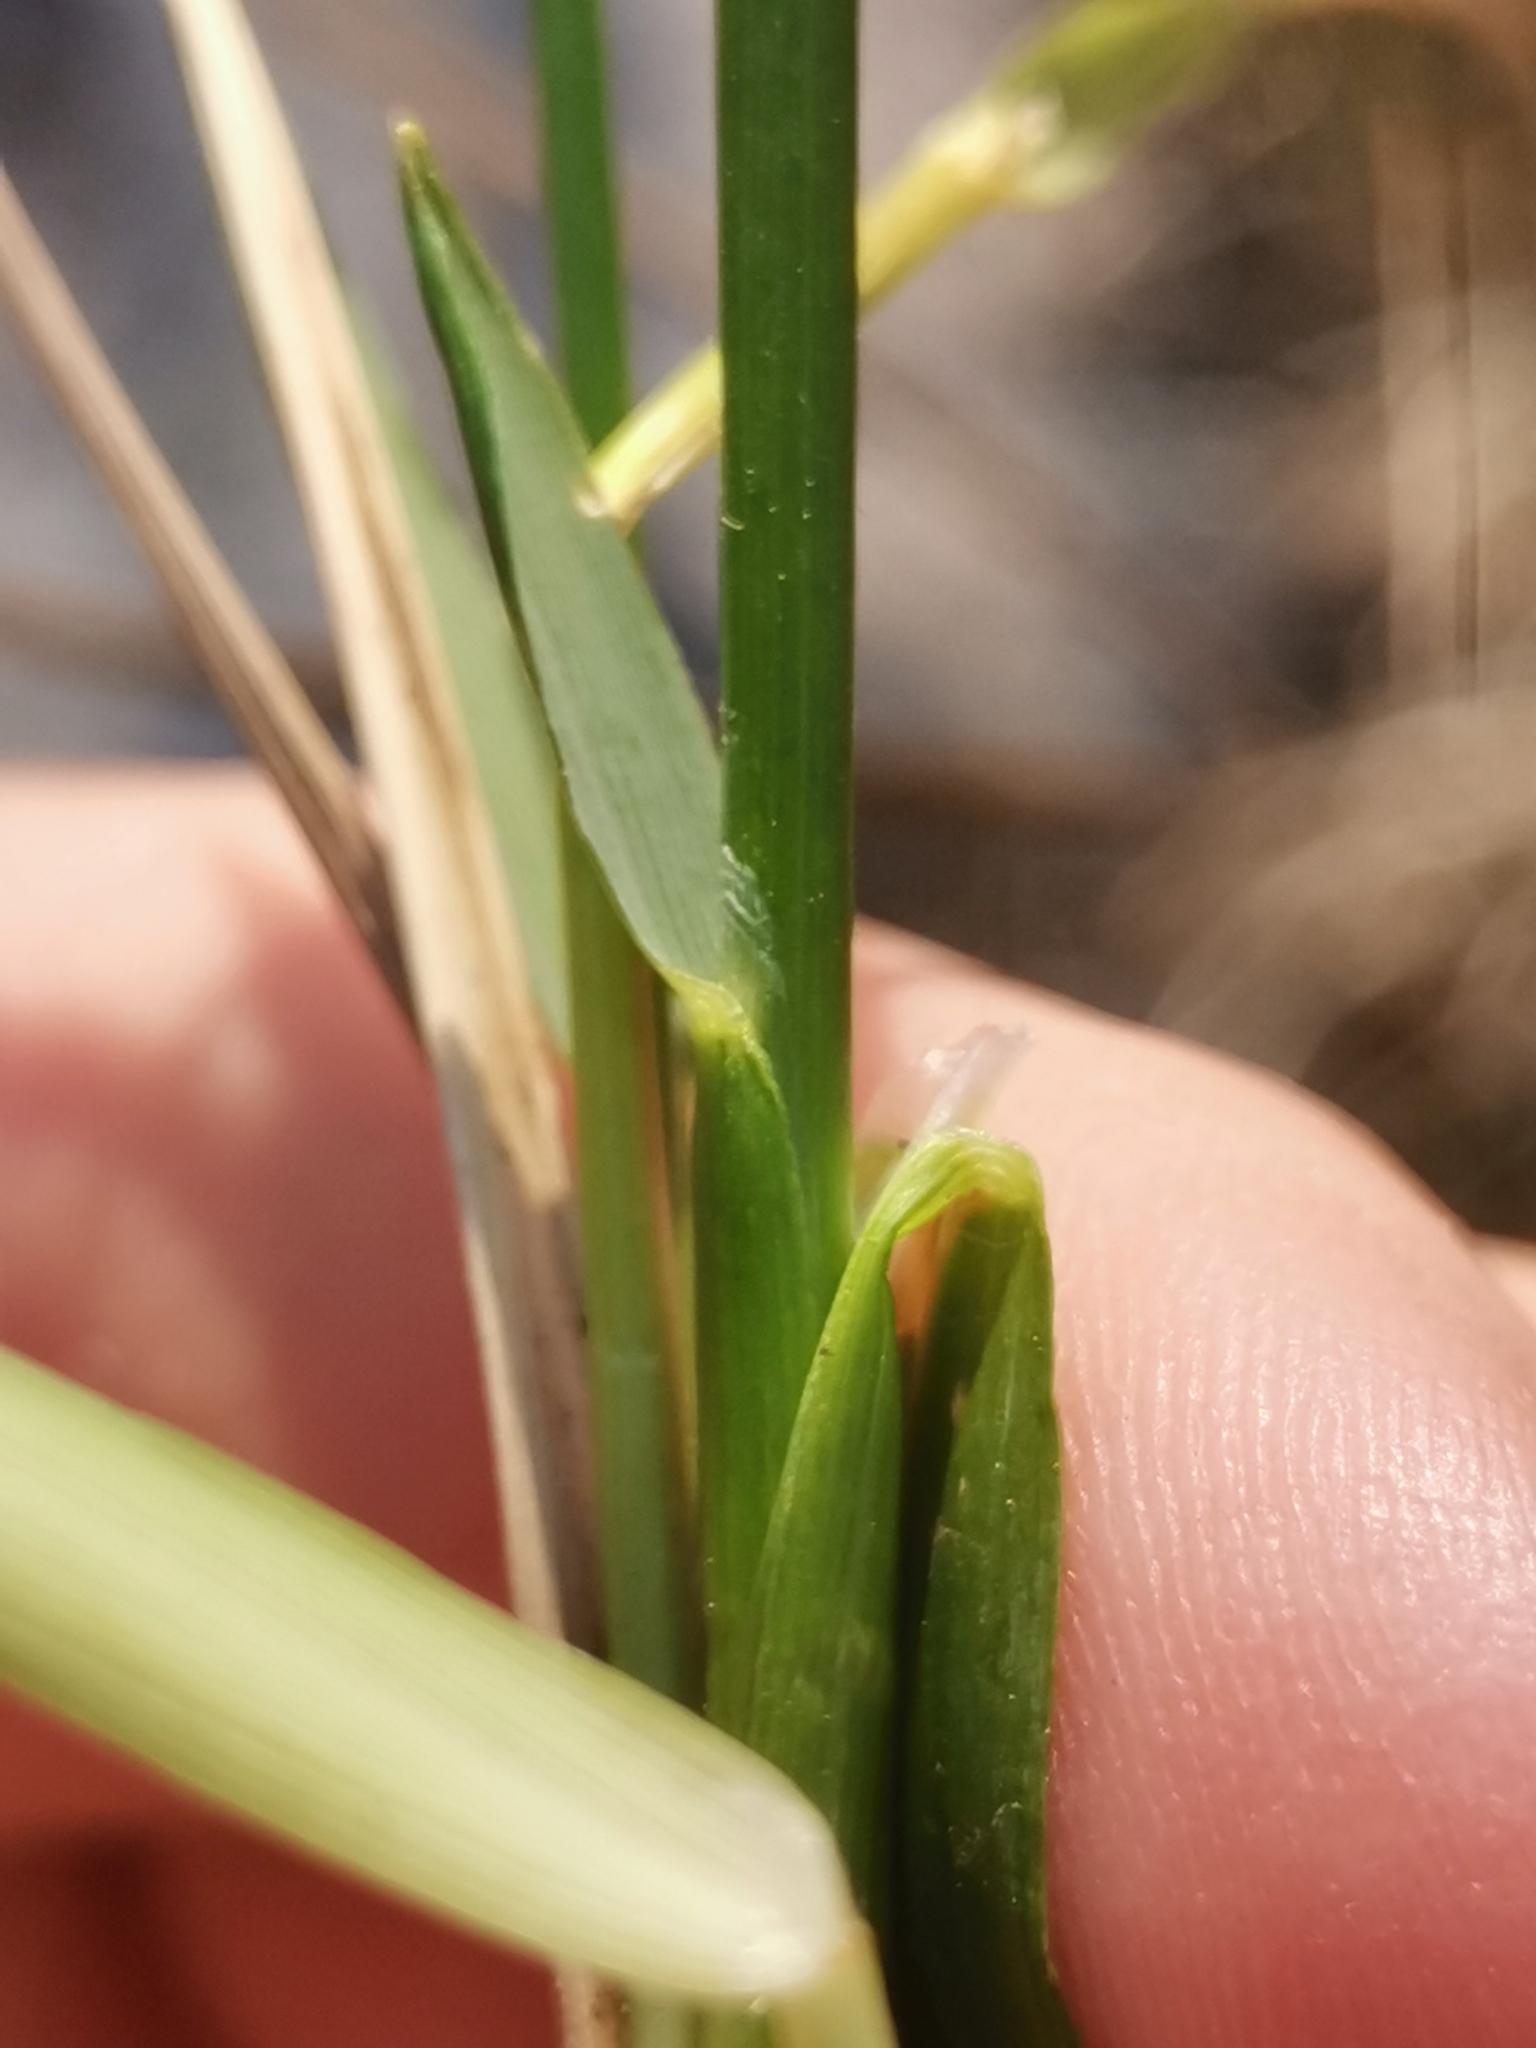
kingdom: Plantae
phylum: Tracheophyta
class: Liliopsida
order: Poales
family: Poaceae
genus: Anthoxanthum
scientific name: Anthoxanthum australe
